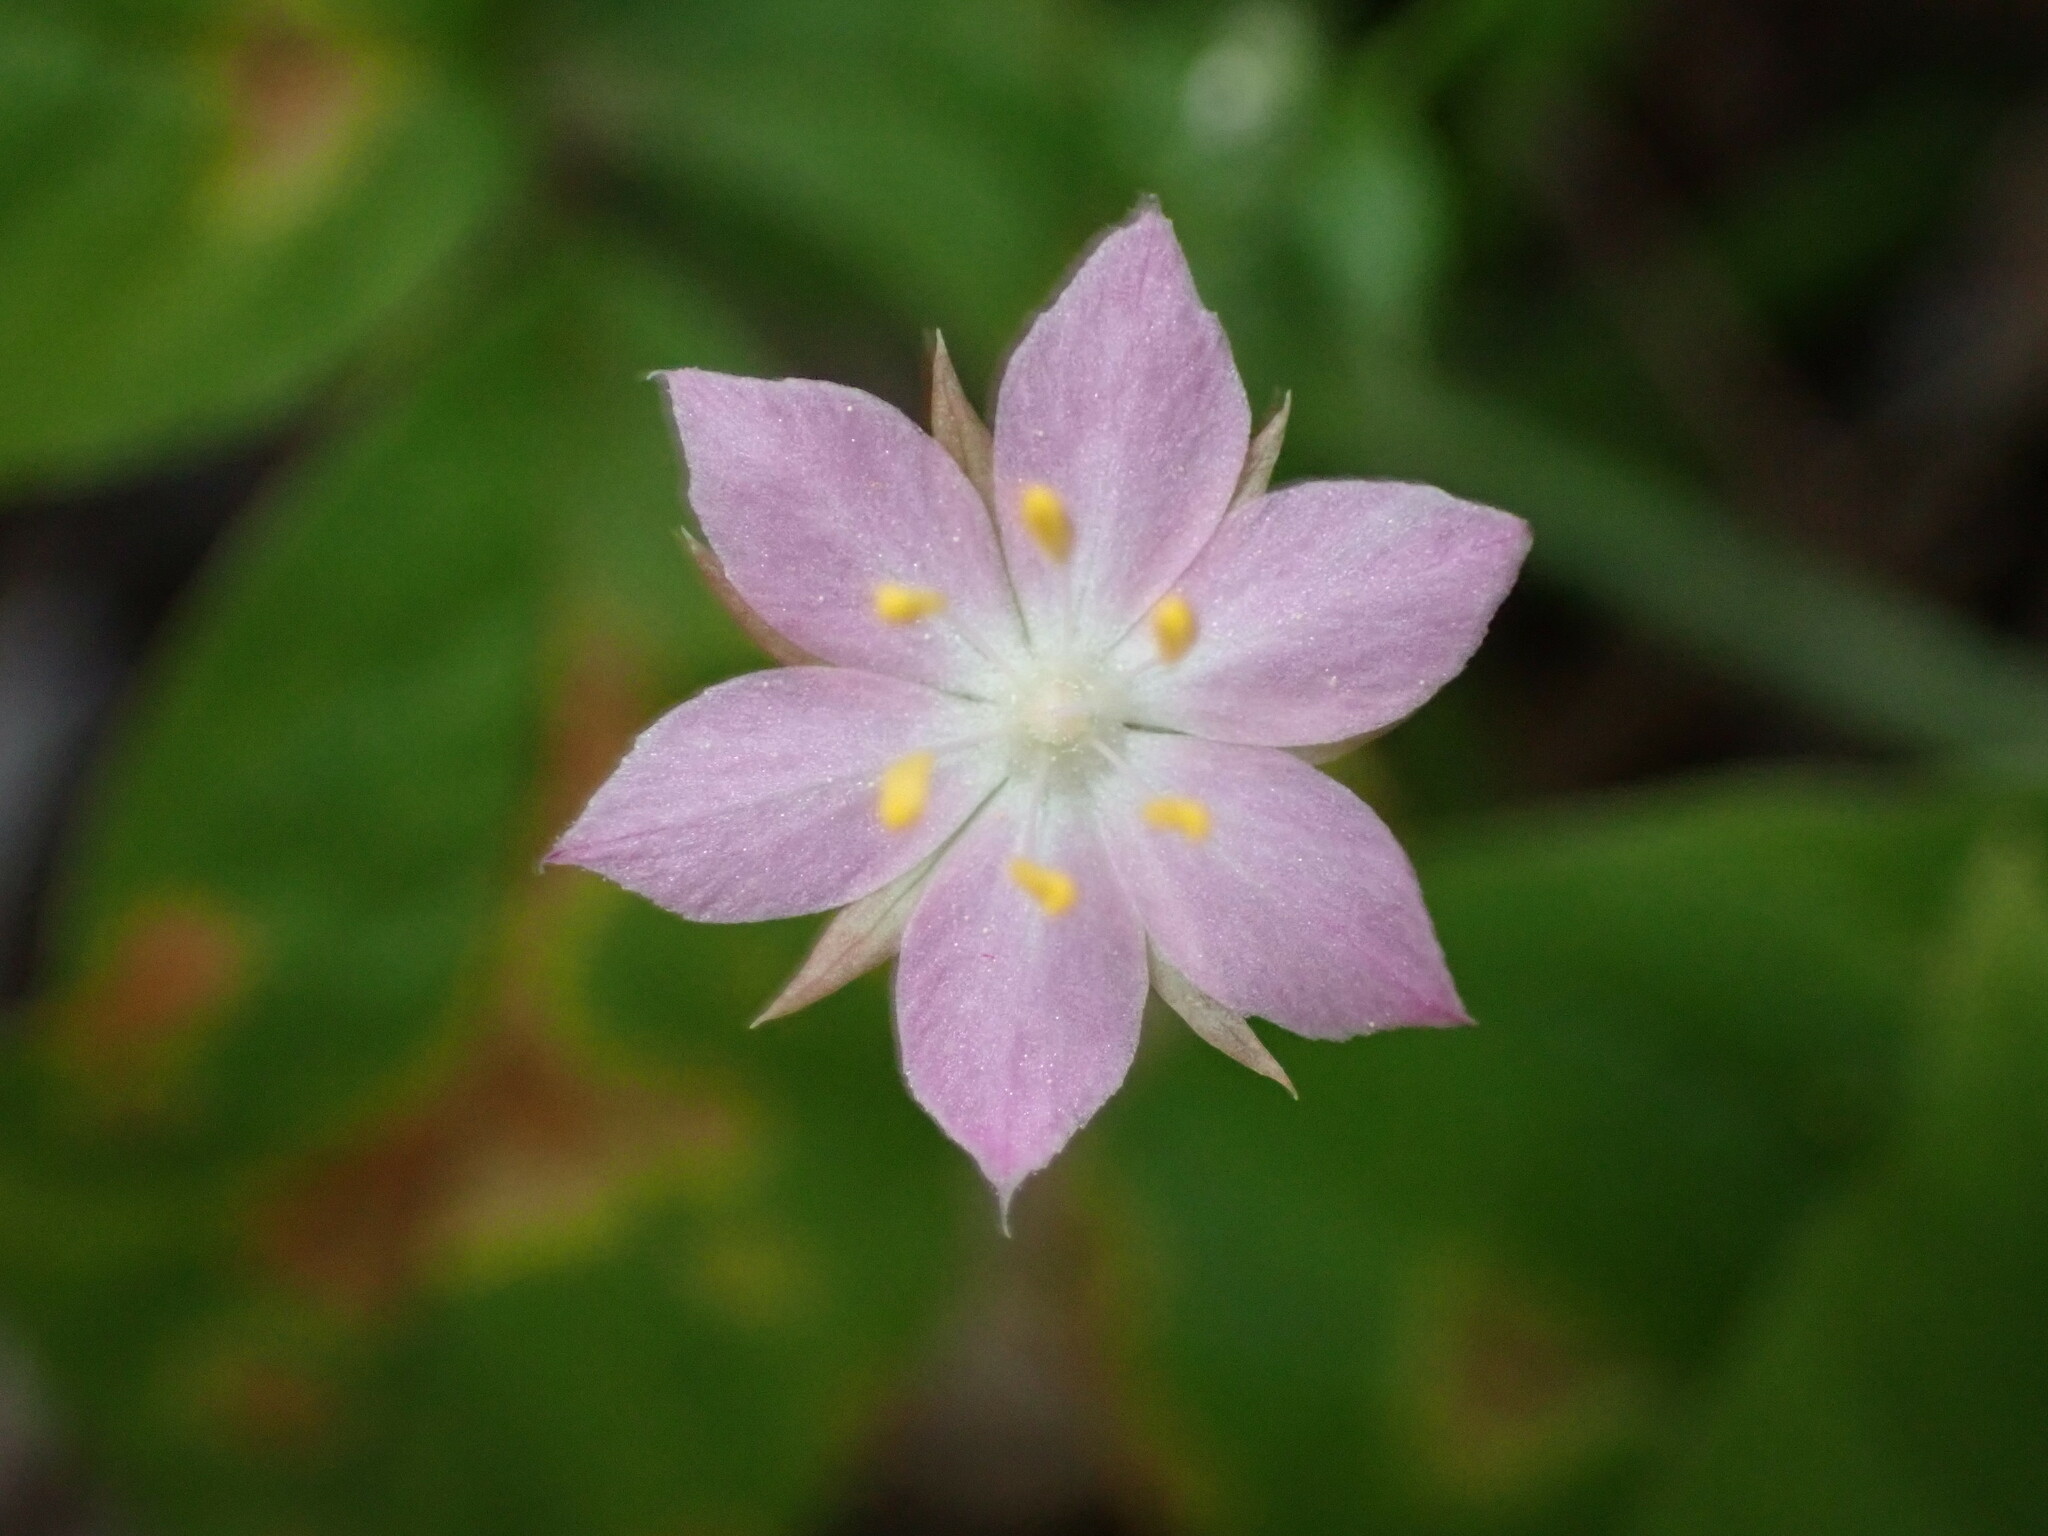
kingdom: Plantae
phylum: Tracheophyta
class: Magnoliopsida
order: Ericales
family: Primulaceae
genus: Lysimachia
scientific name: Lysimachia latifolia
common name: Pacific starflower
